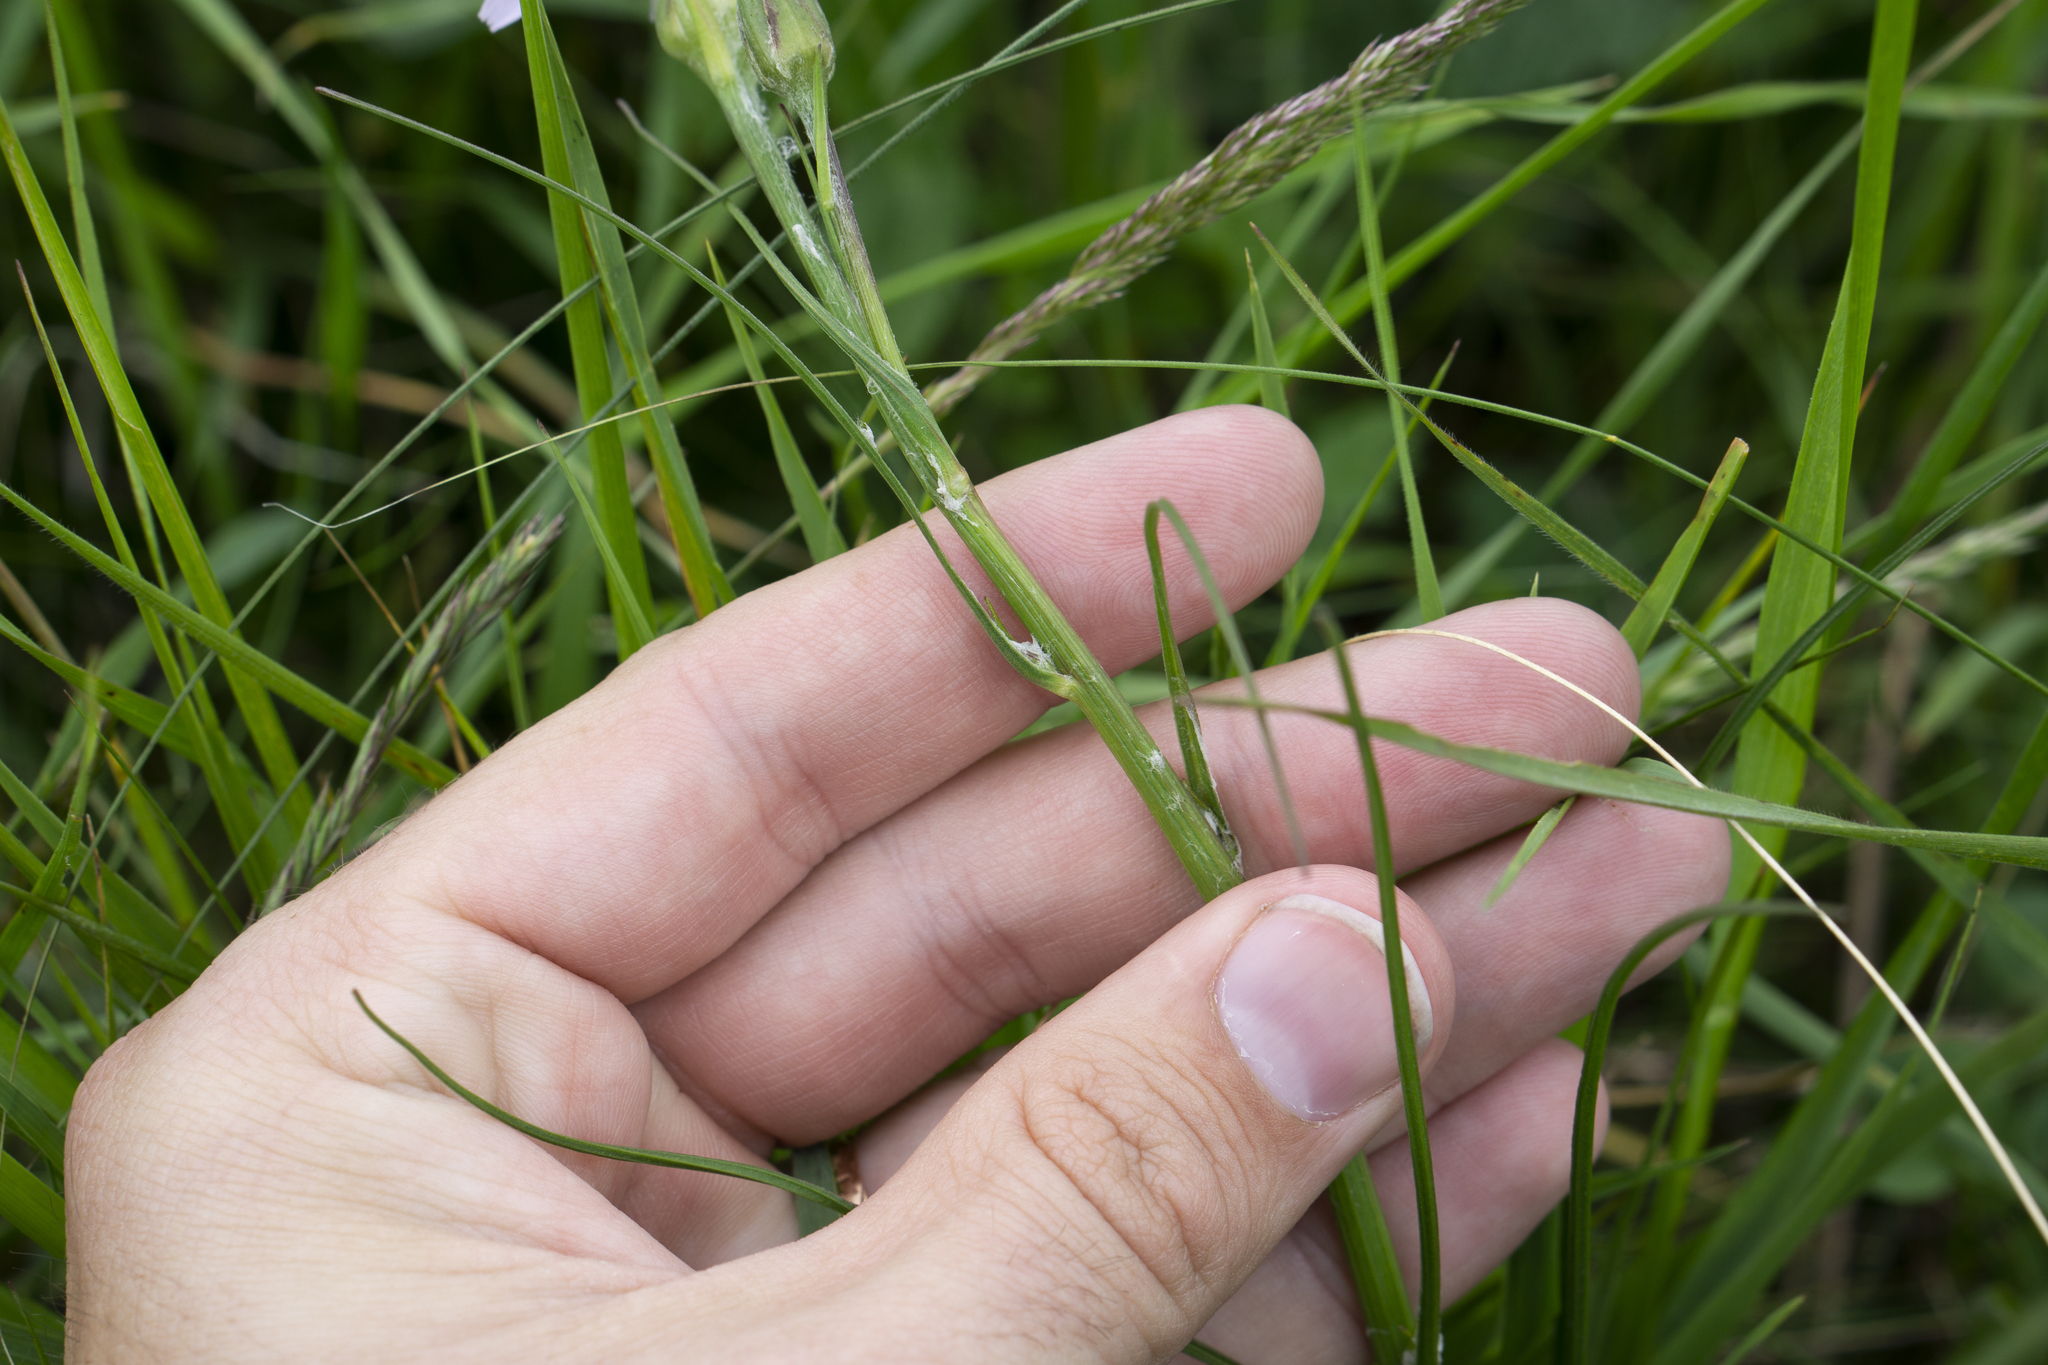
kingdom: Plantae
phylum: Tracheophyta
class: Magnoliopsida
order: Asterales
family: Asteraceae
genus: Scorzonera
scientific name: Scorzonera purpurea
